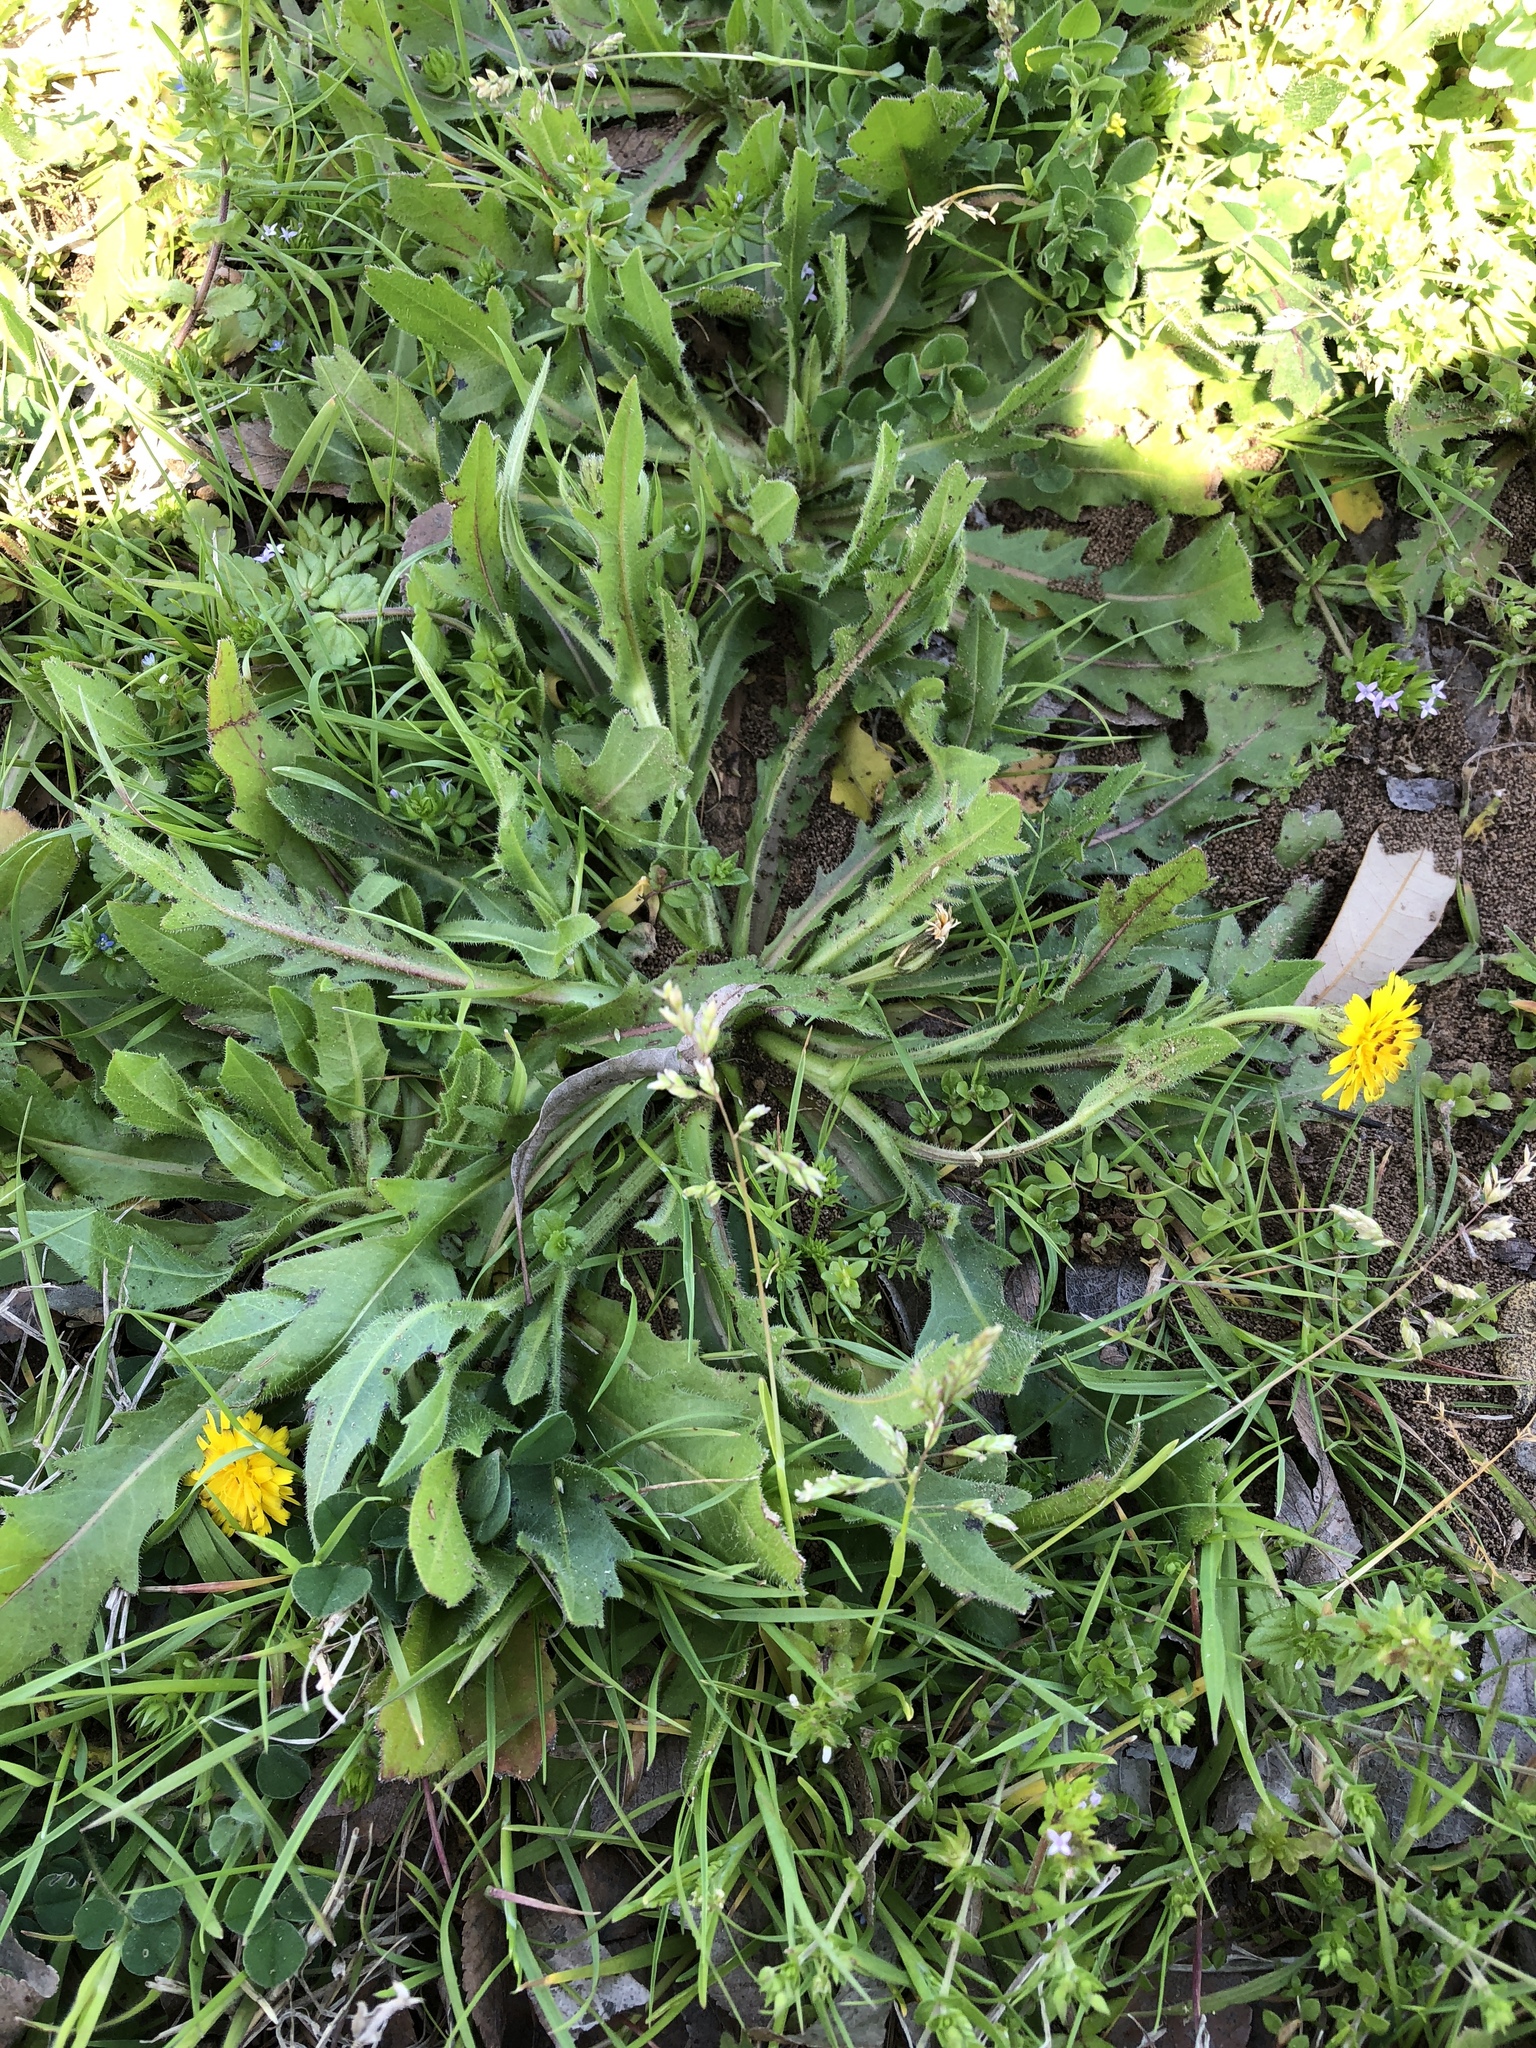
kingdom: Plantae
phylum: Tracheophyta
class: Magnoliopsida
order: Asterales
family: Asteraceae
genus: Hedypnois
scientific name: Hedypnois rhagadioloides
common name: Cretan weed
